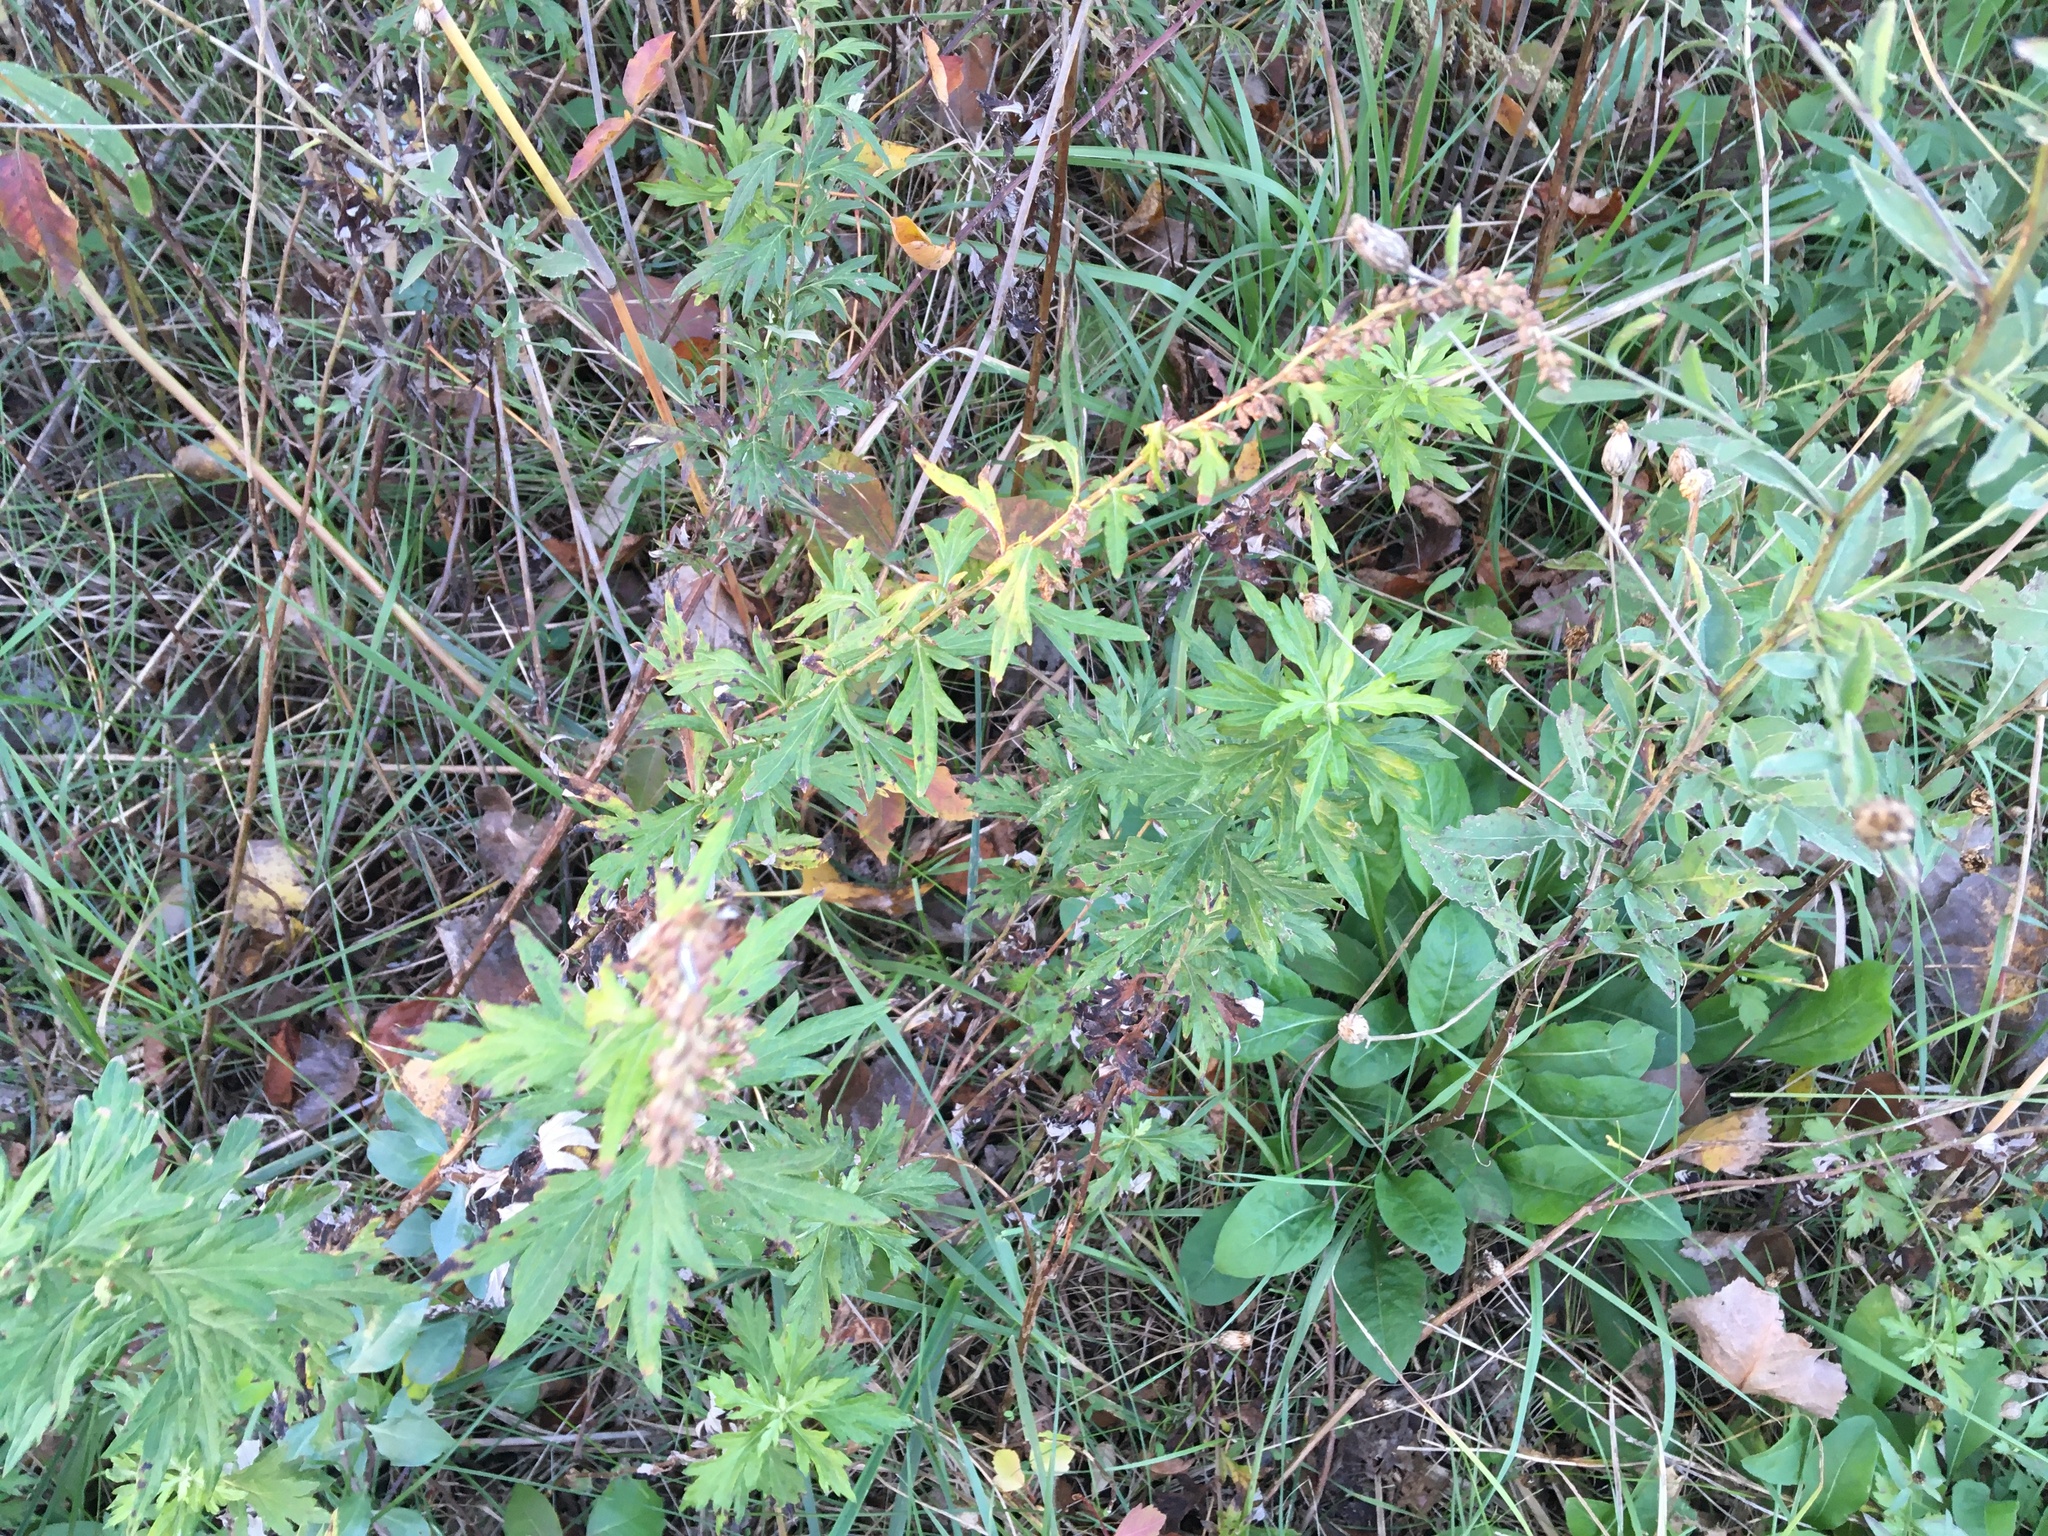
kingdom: Plantae
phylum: Tracheophyta
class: Magnoliopsida
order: Asterales
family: Asteraceae
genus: Artemisia
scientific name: Artemisia vulgaris
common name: Mugwort
